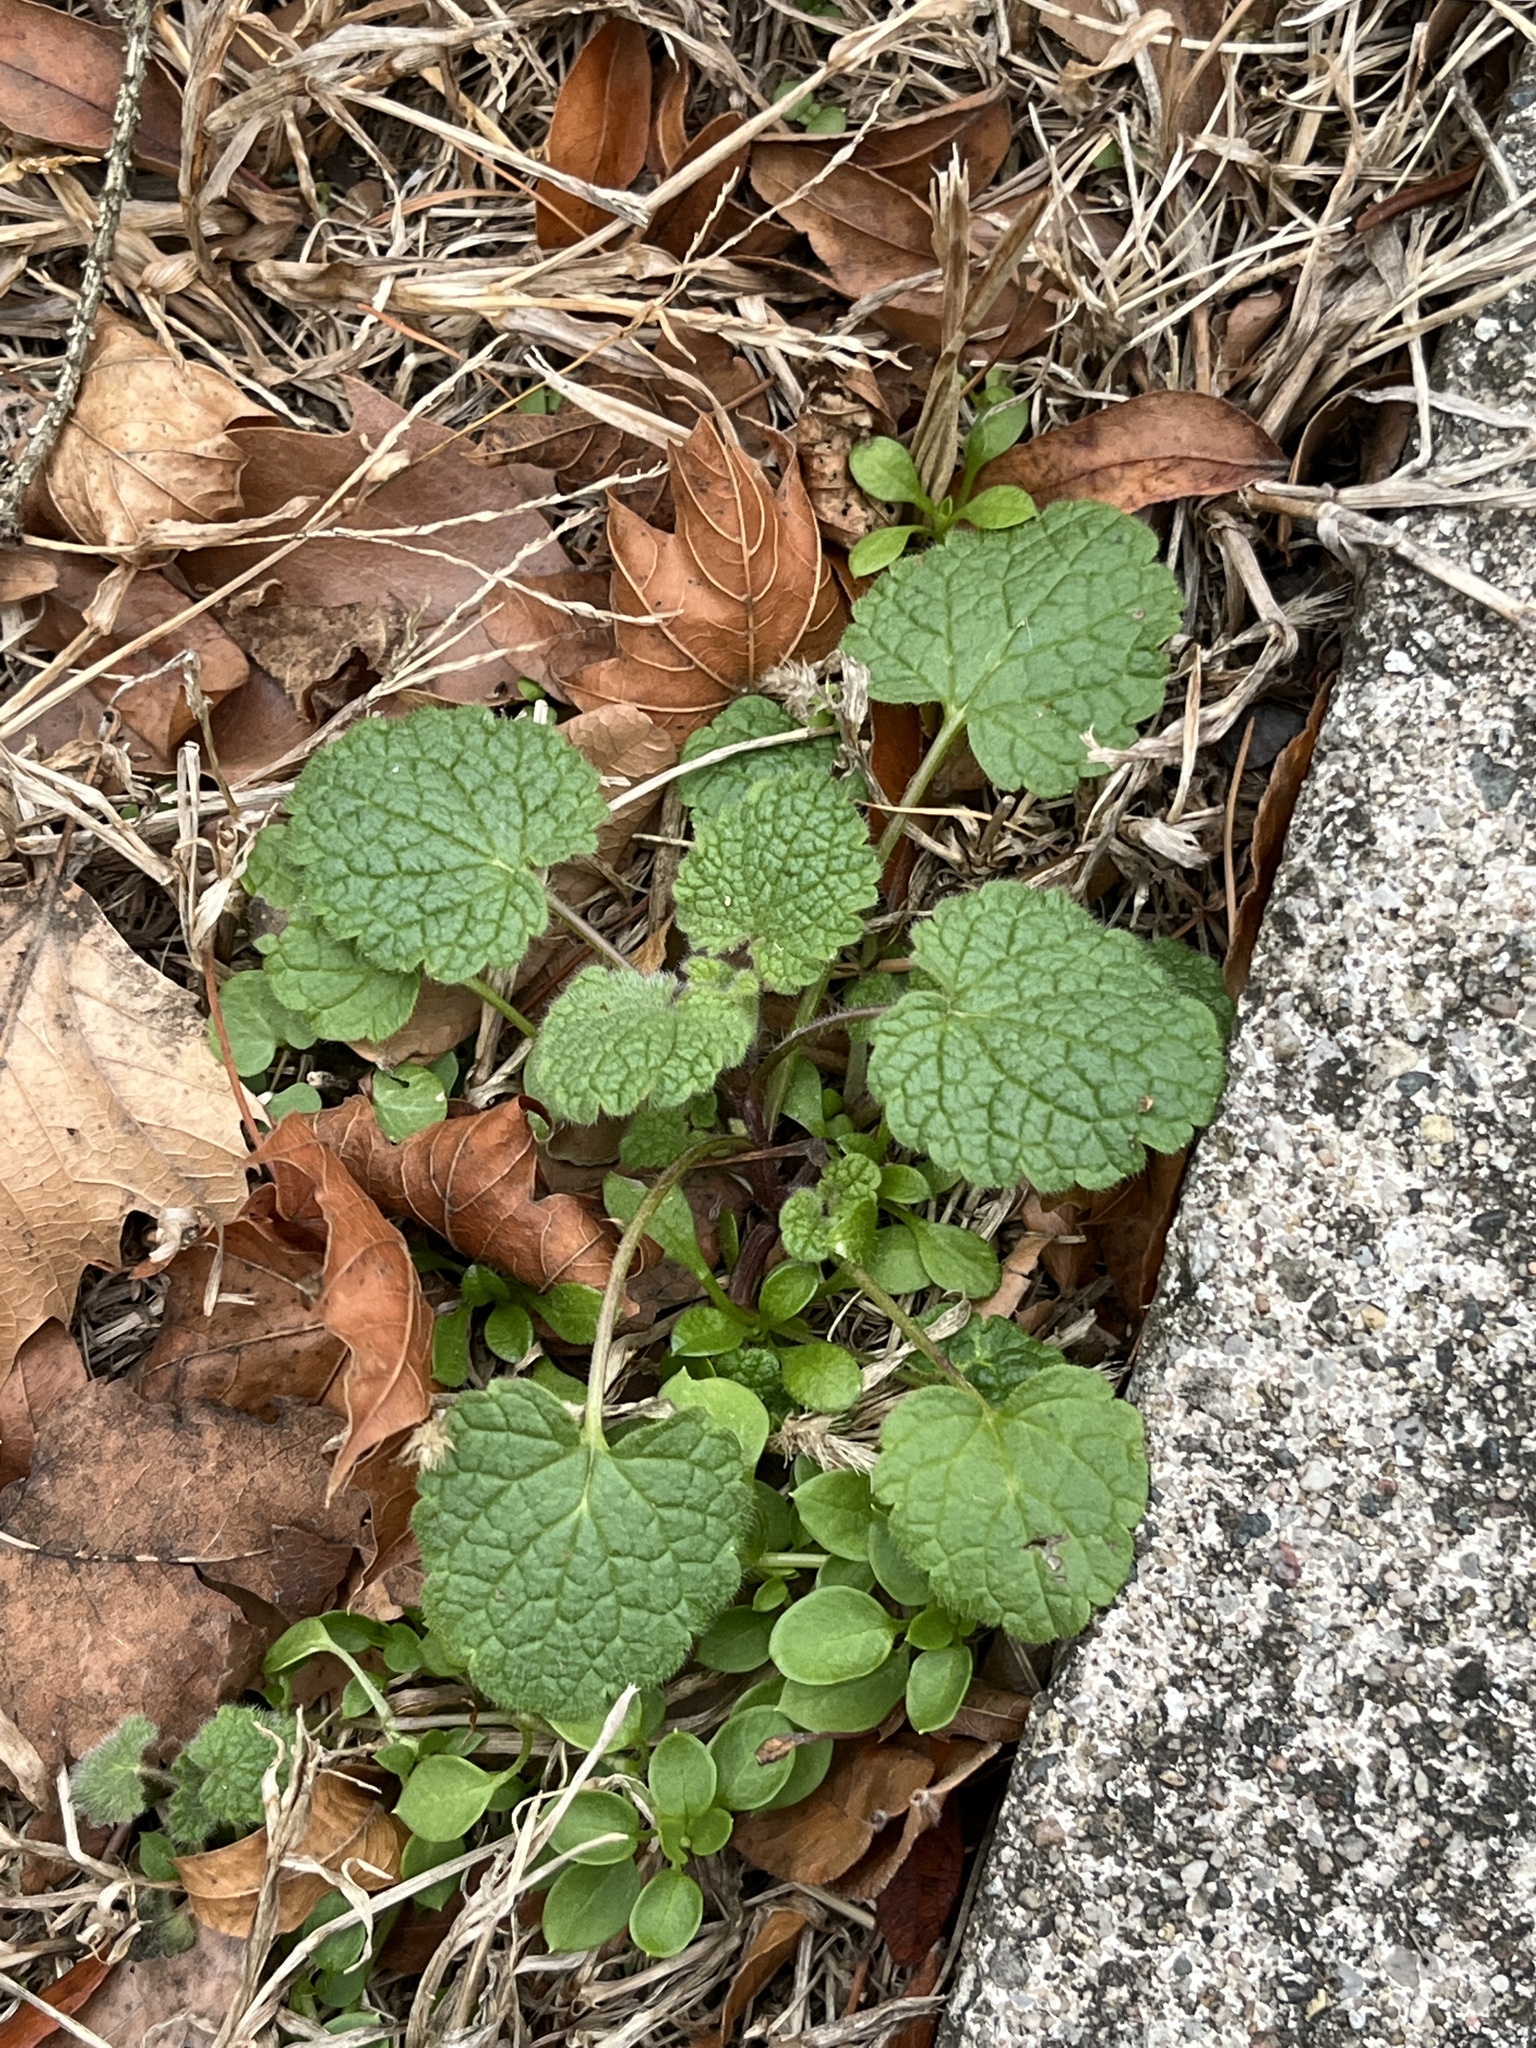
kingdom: Plantae
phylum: Tracheophyta
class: Magnoliopsida
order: Lamiales
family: Lamiaceae
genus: Lamium
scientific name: Lamium purpureum
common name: Red dead-nettle
